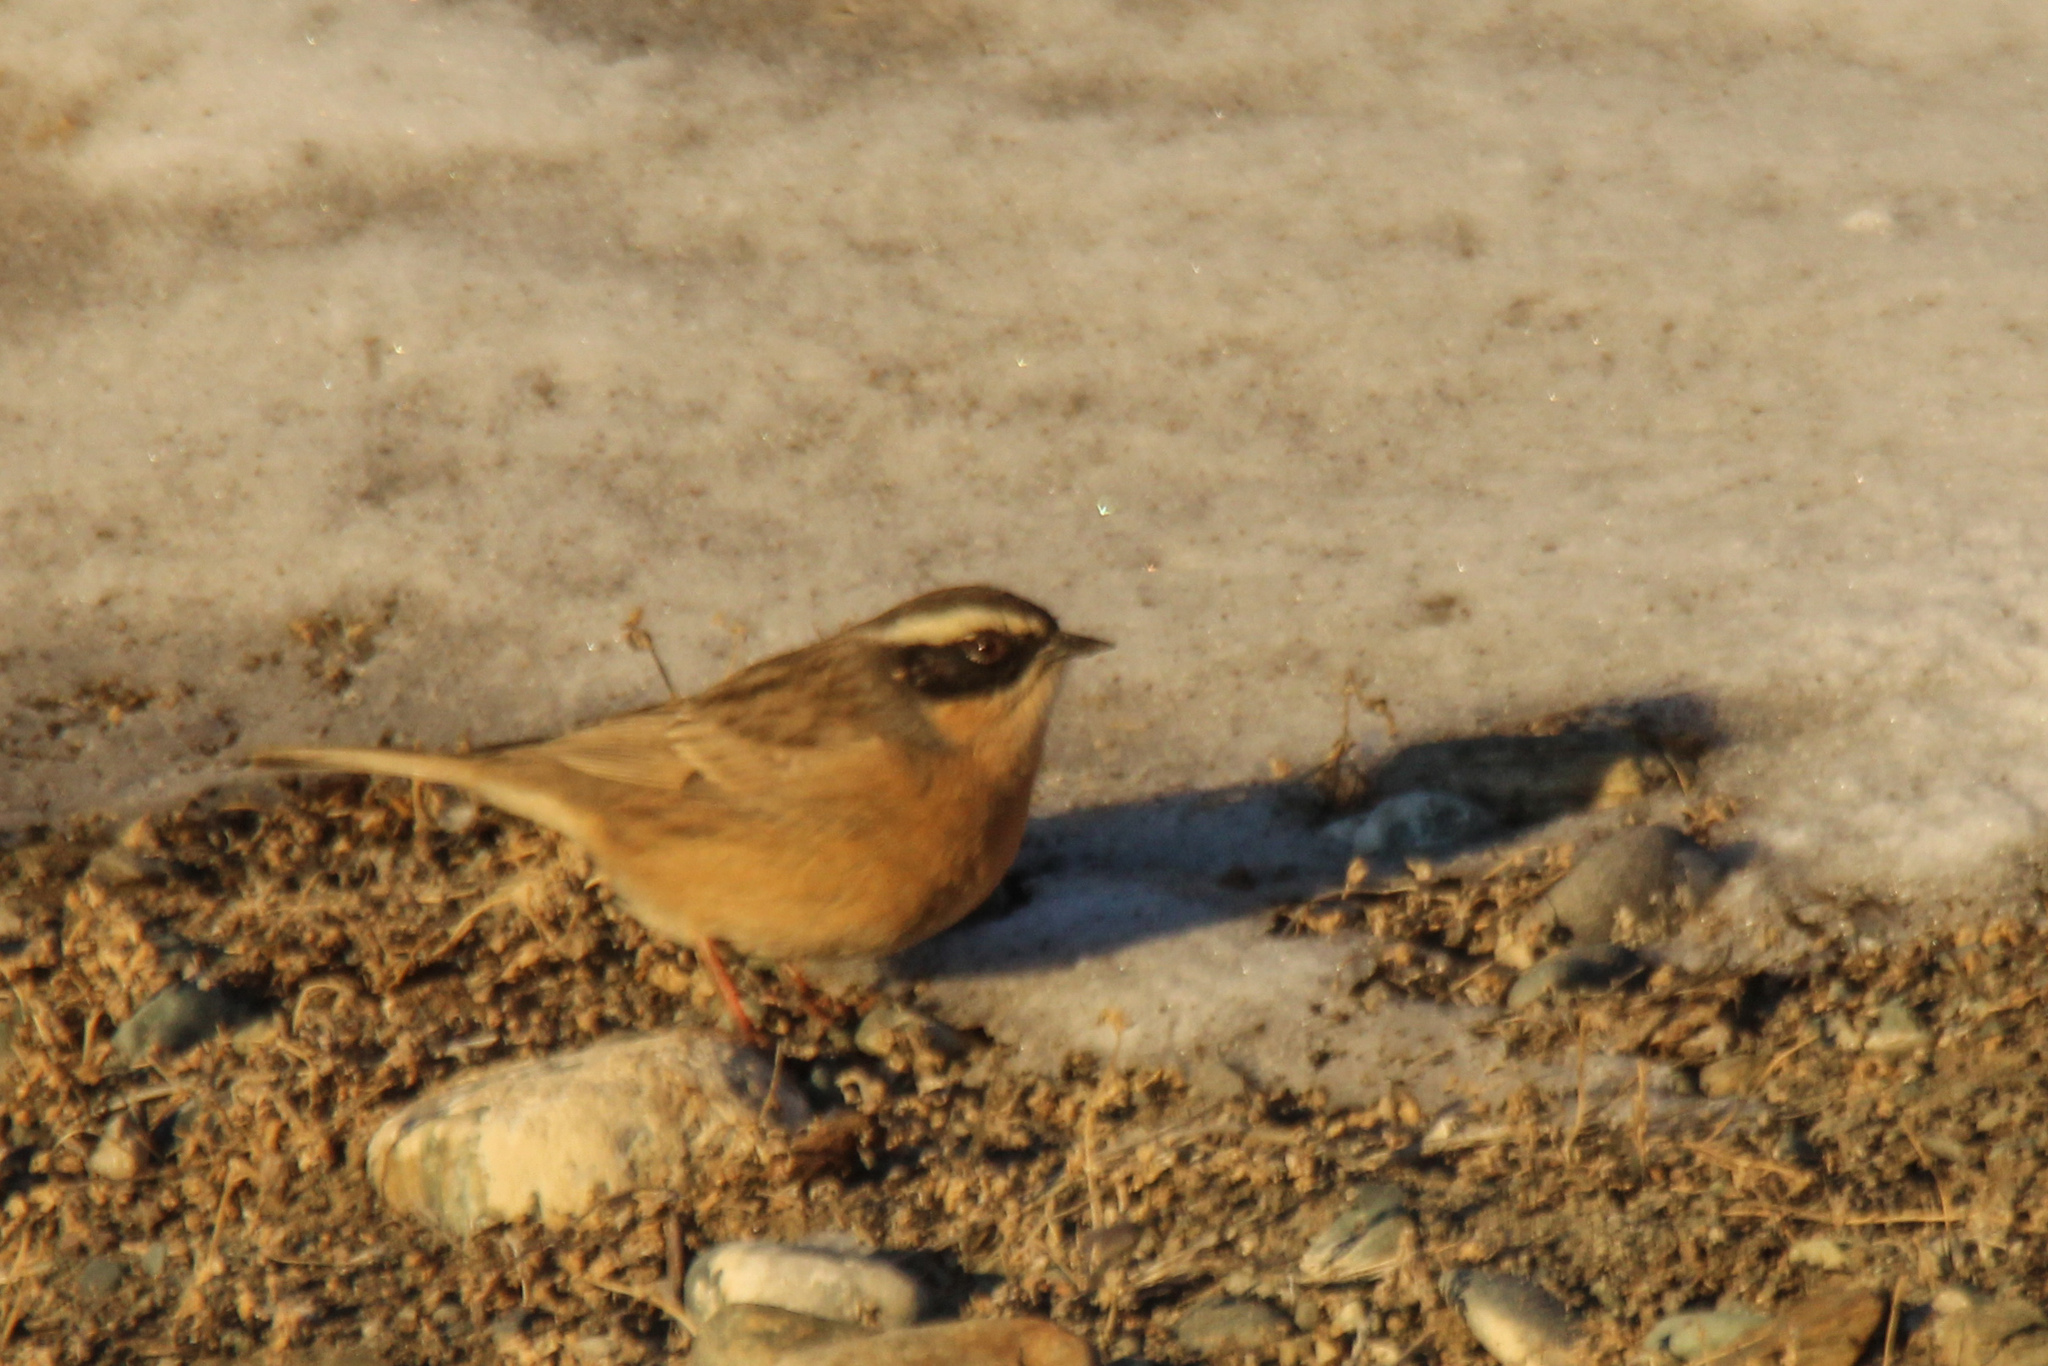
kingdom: Animalia
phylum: Chordata
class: Aves
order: Passeriformes
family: Prunellidae
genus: Prunella
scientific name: Prunella fulvescens
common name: Brown accentor
